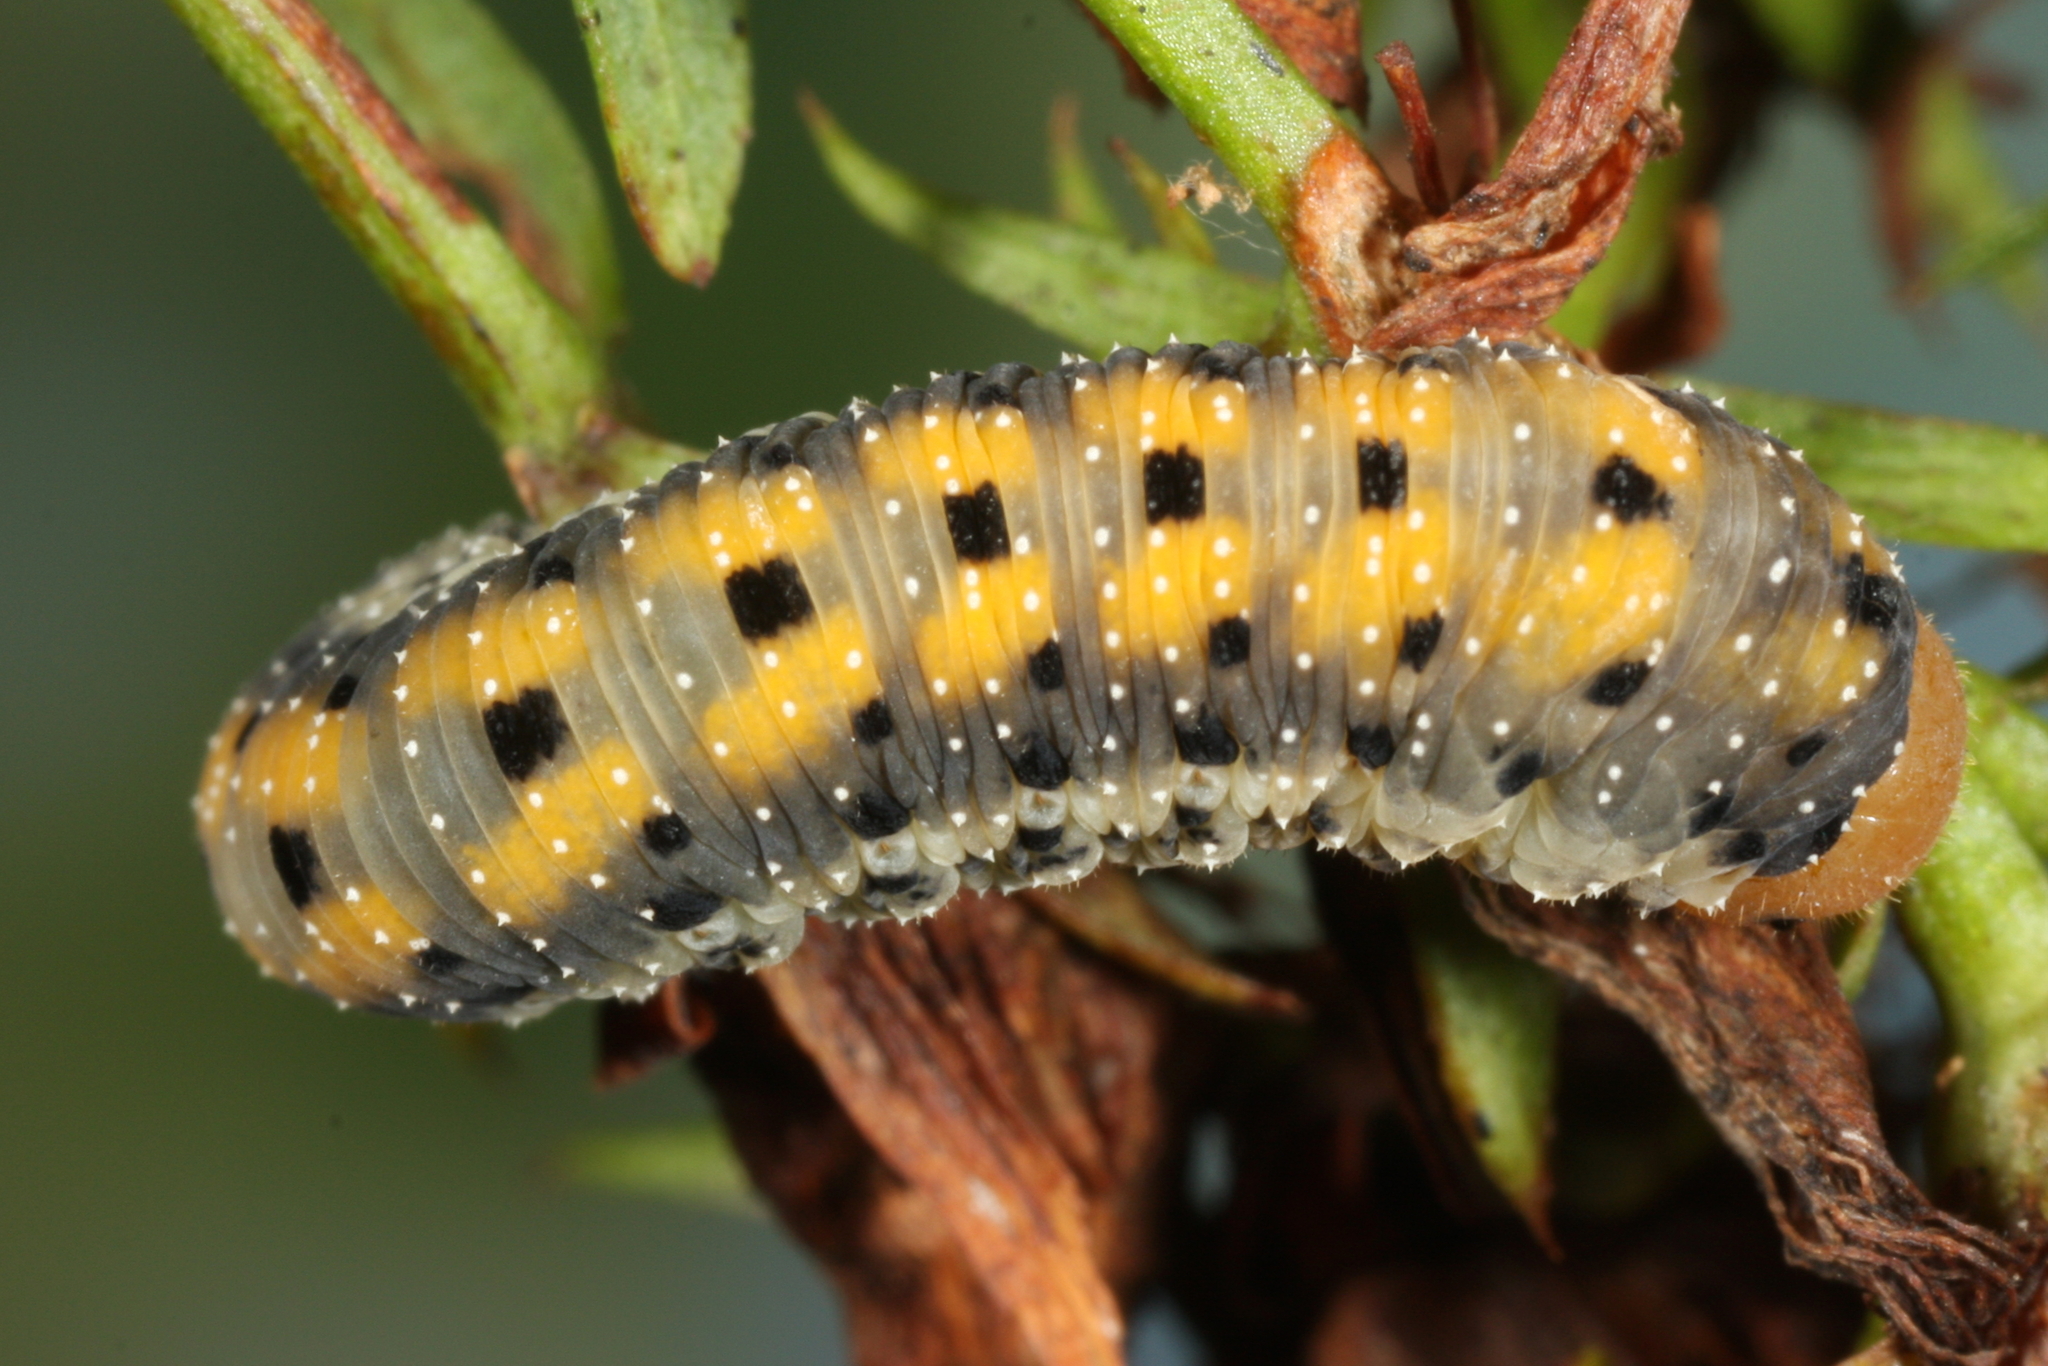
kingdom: Animalia
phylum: Arthropoda
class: Insecta
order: Hymenoptera
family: Tenthredinidae
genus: Tenthredo
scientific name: Tenthredo amoena
